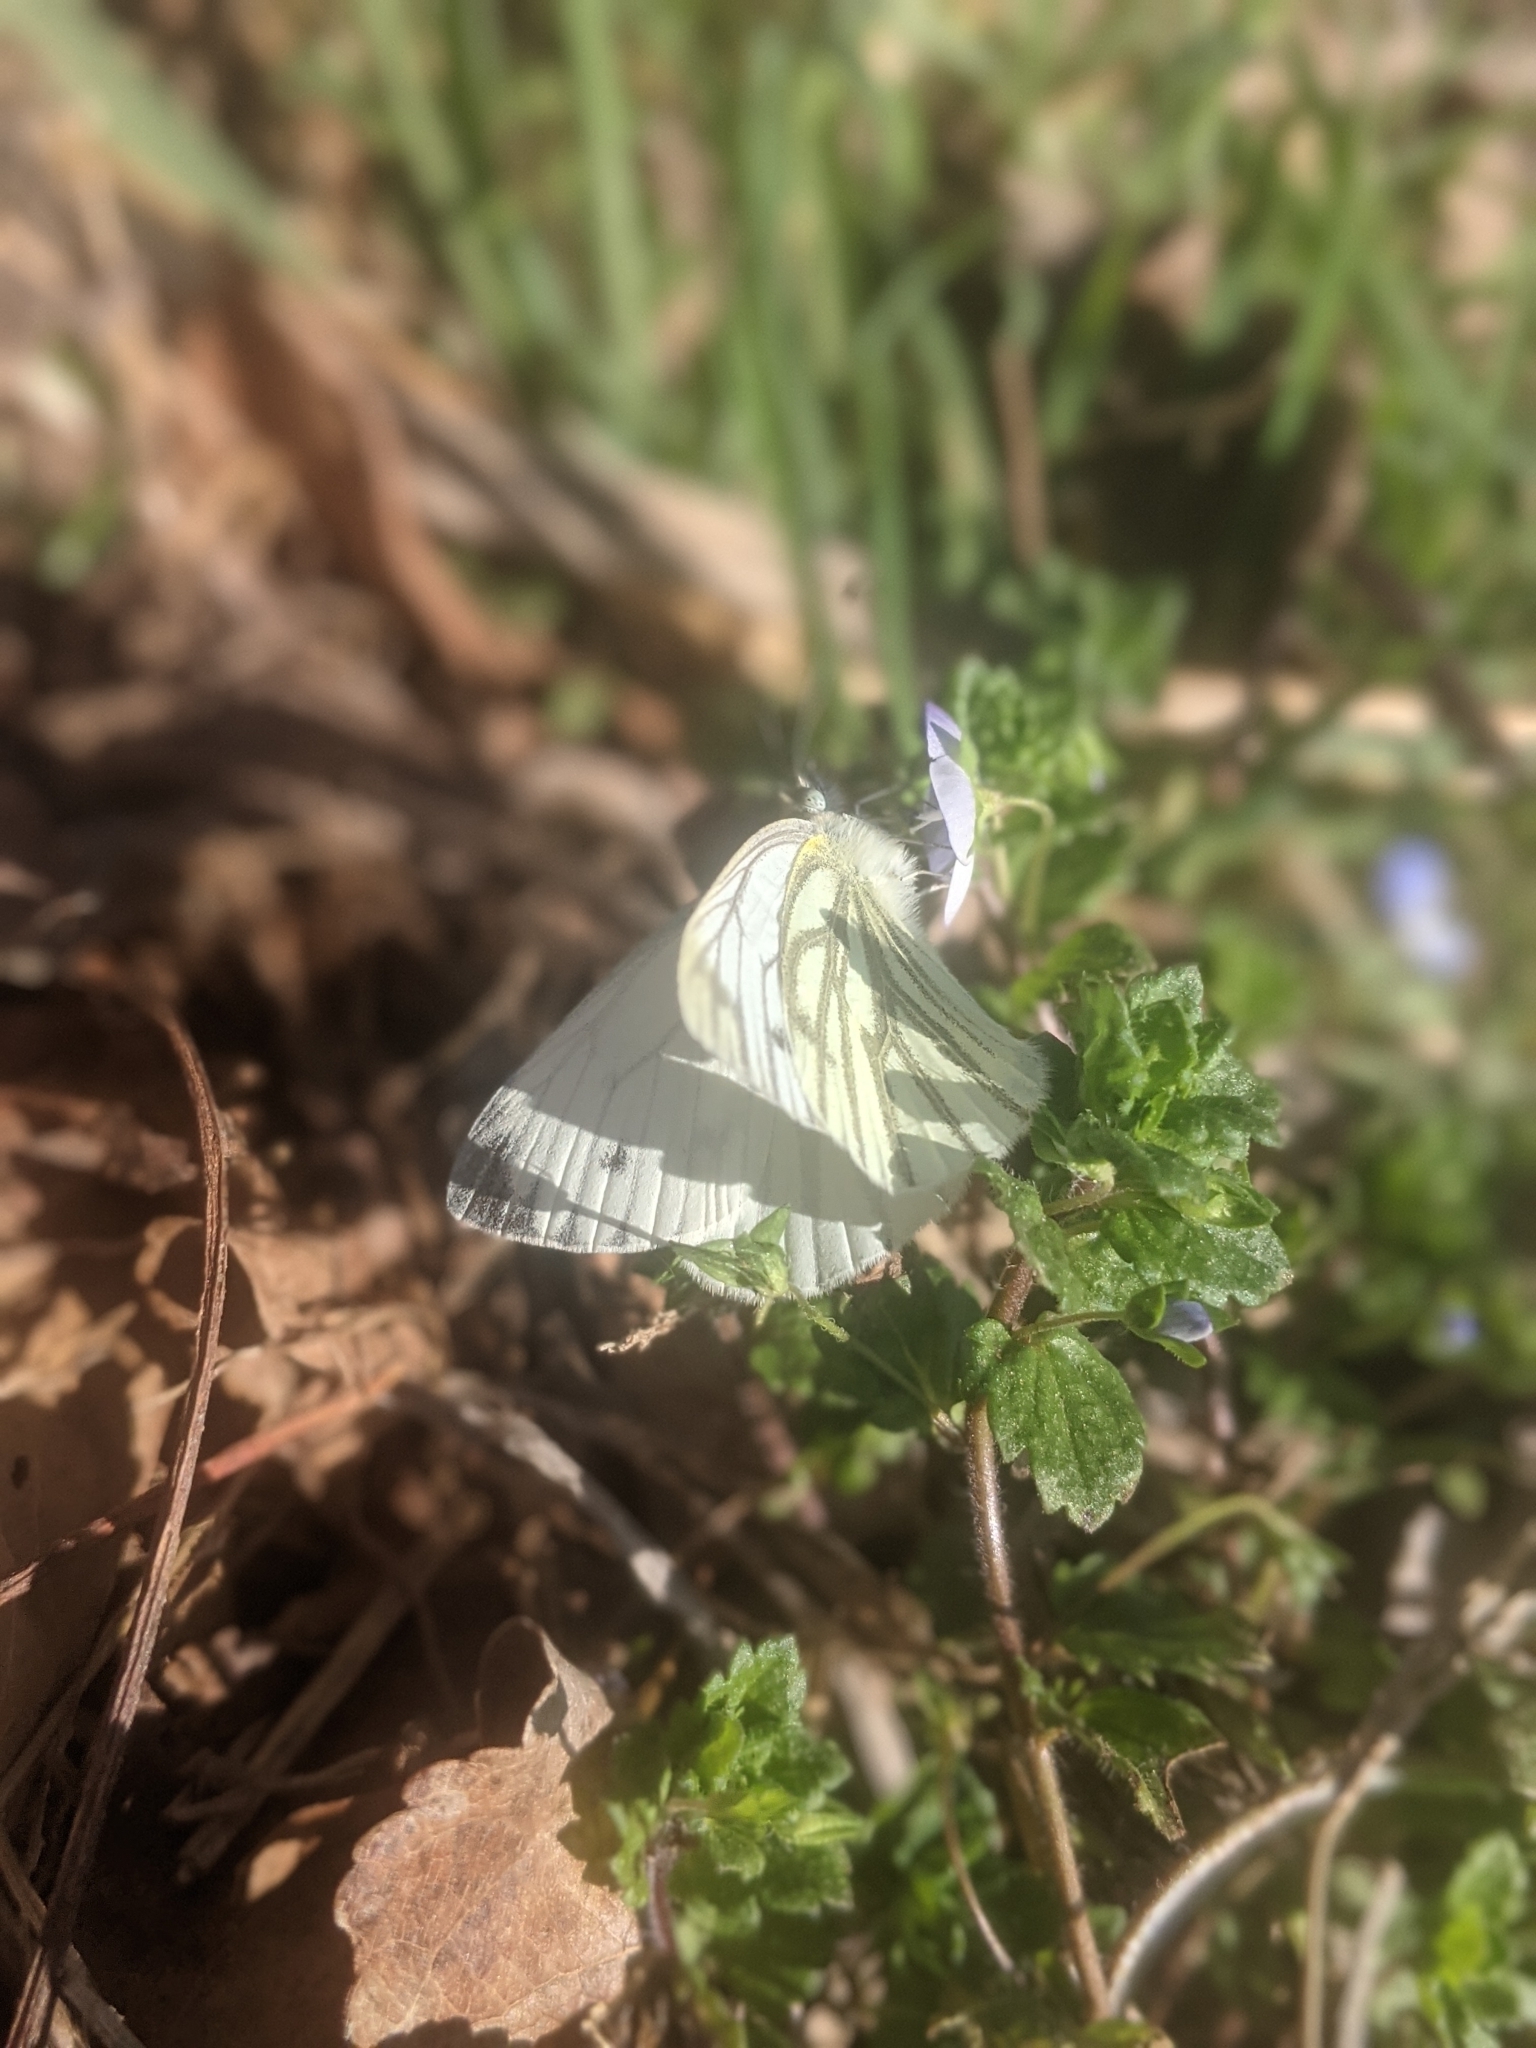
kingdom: Animalia
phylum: Arthropoda
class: Insecta
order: Lepidoptera
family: Pieridae
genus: Pieris
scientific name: Pieris napi
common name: Green-veined white
